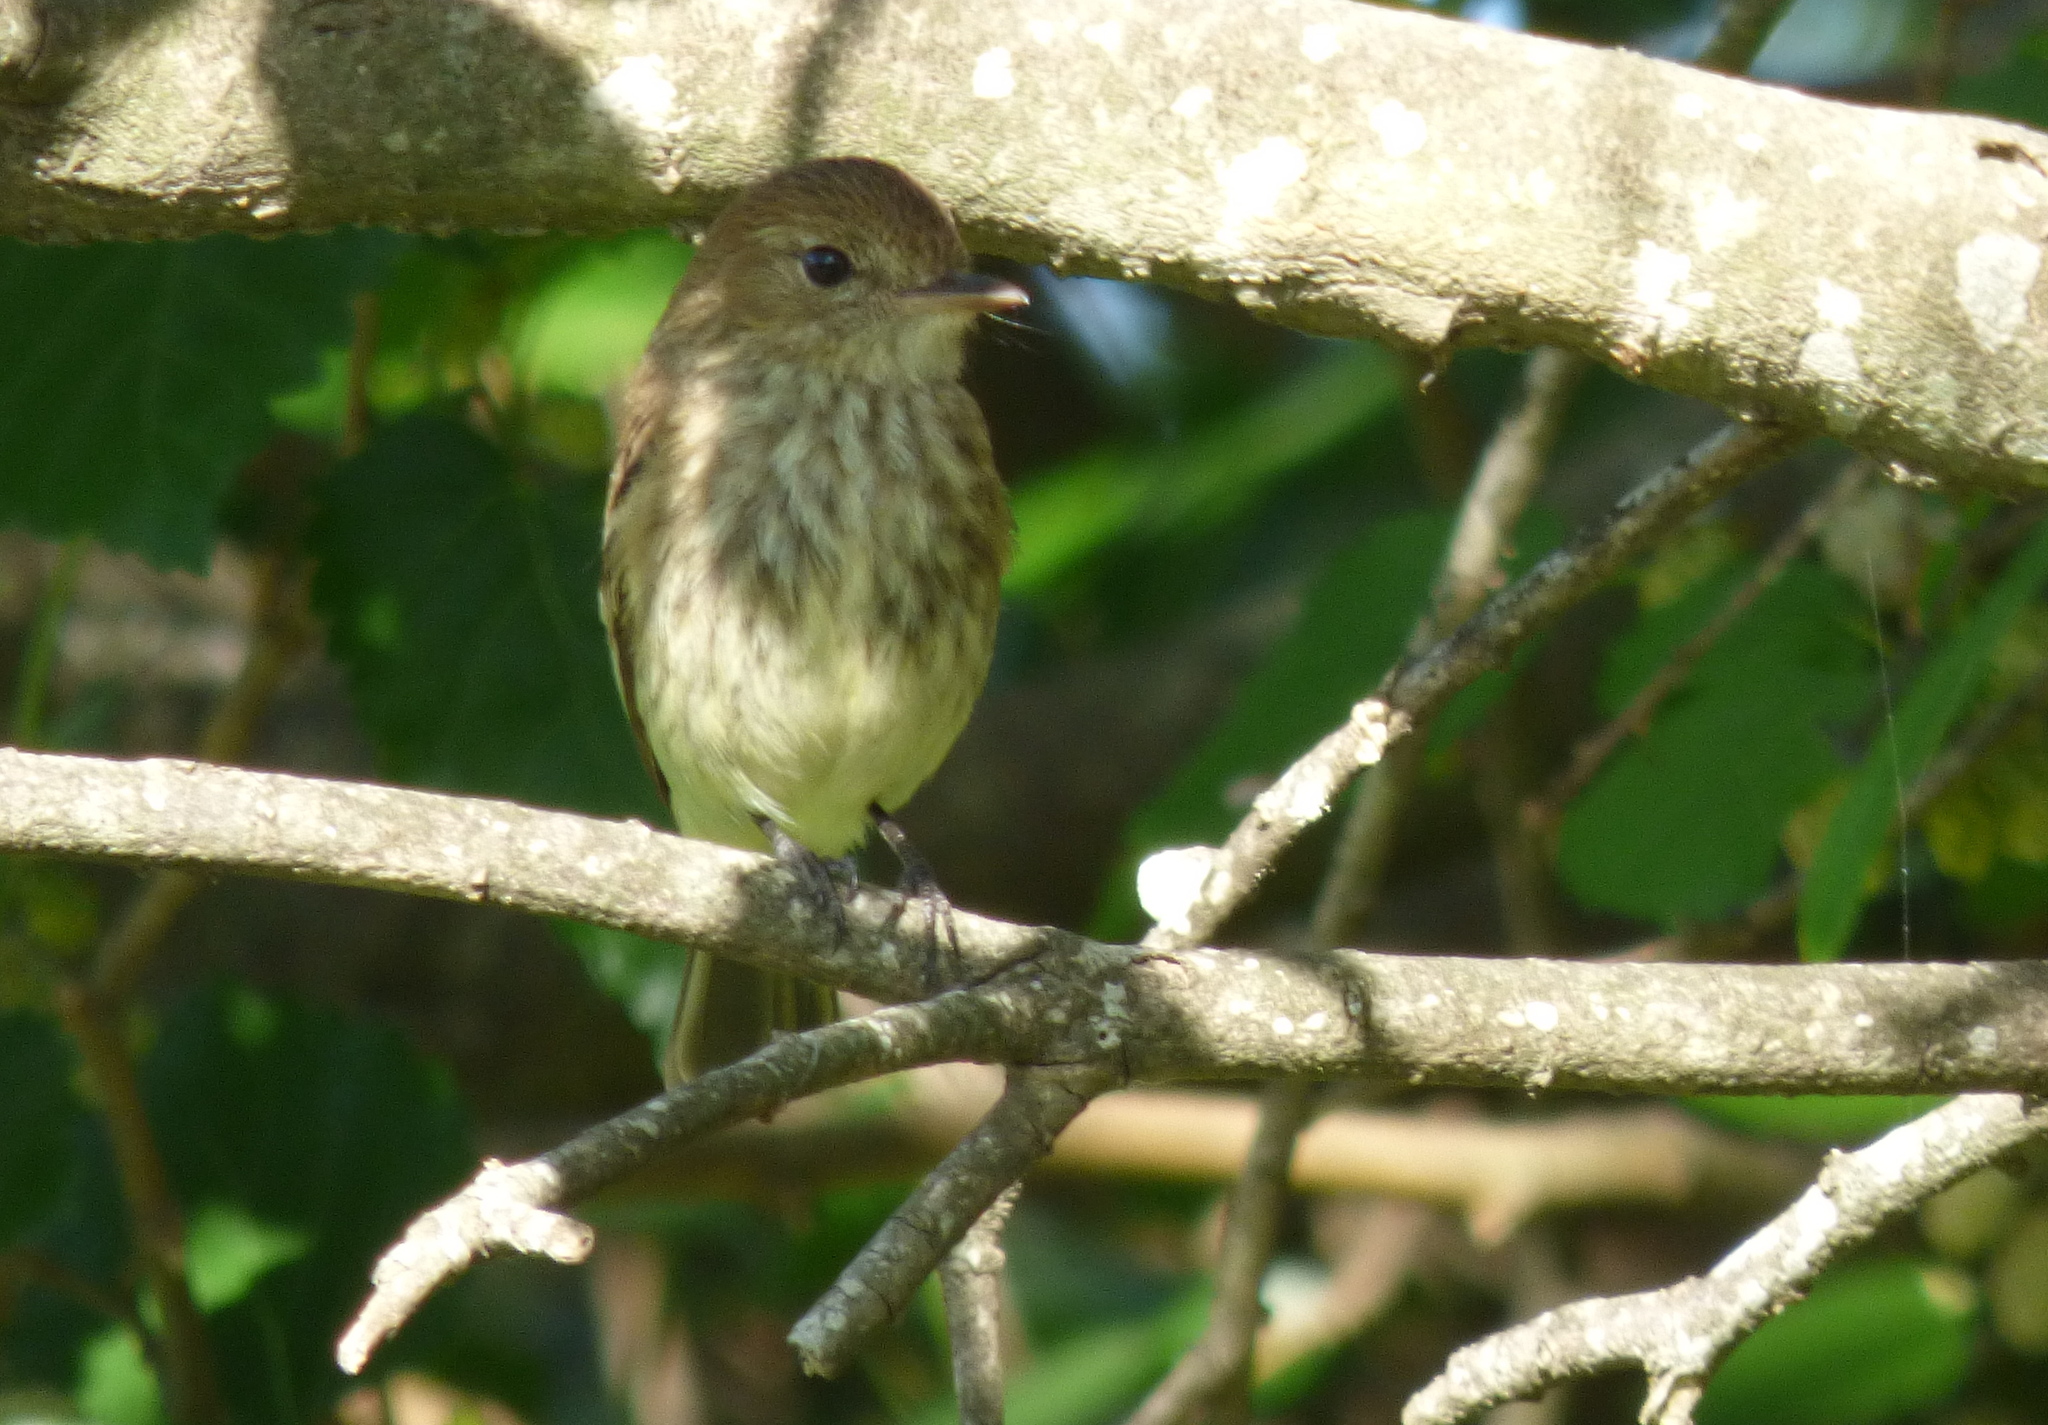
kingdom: Animalia
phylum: Chordata
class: Aves
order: Passeriformes
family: Tyrannidae
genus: Myiophobus
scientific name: Myiophobus fasciatus
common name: Bran-colored flycatcher
